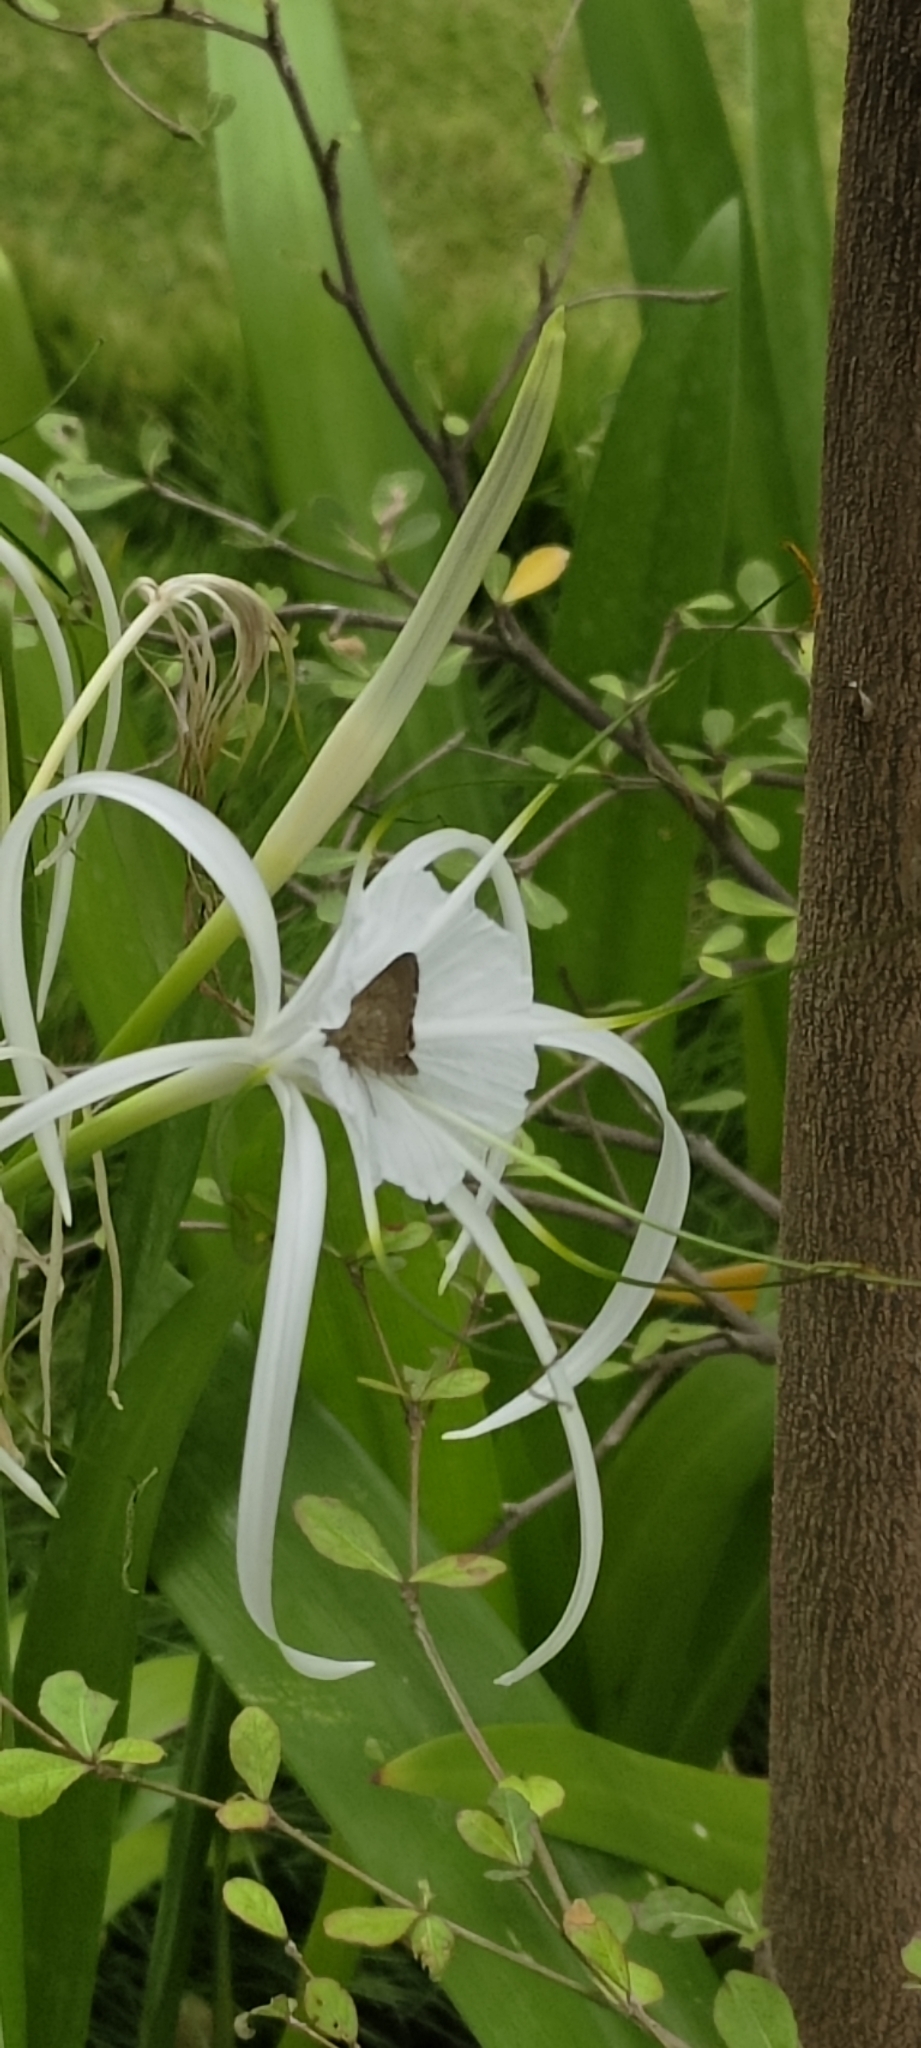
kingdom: Animalia
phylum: Arthropoda
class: Insecta
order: Lepidoptera
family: Hesperiidae
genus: Borbo
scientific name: Borbo cinnara
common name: Formosan swift
